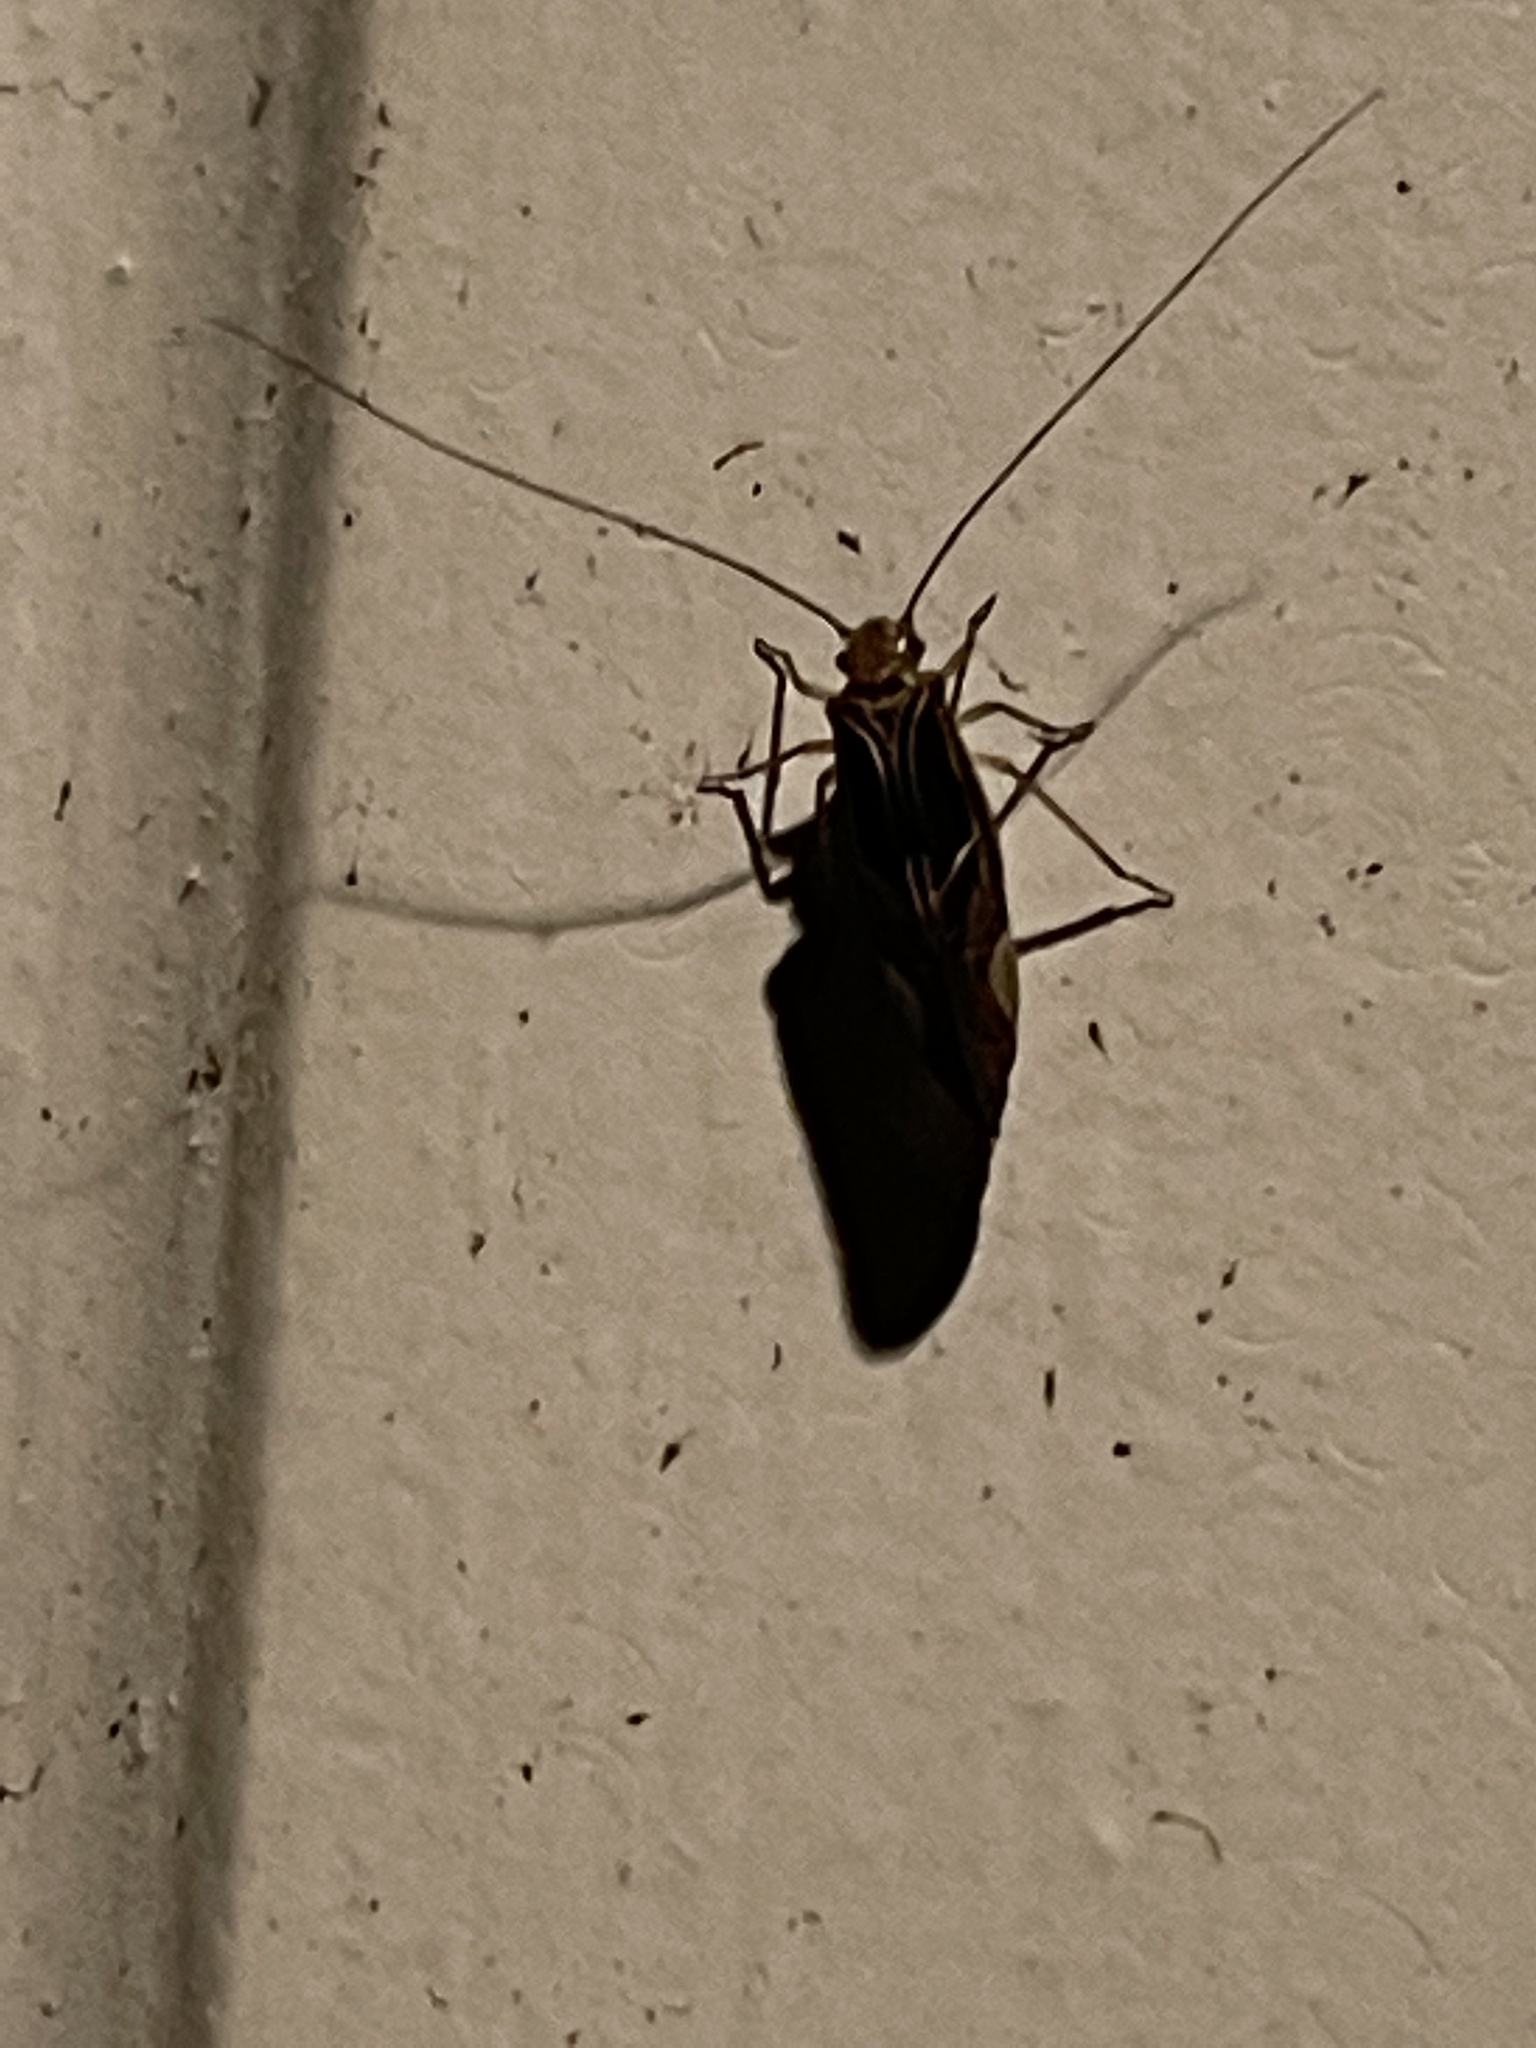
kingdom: Animalia
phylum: Arthropoda
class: Insecta
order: Psocodea
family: Psocidae
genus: Cerastipsocus
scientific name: Cerastipsocus venosus
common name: Tree cattle
